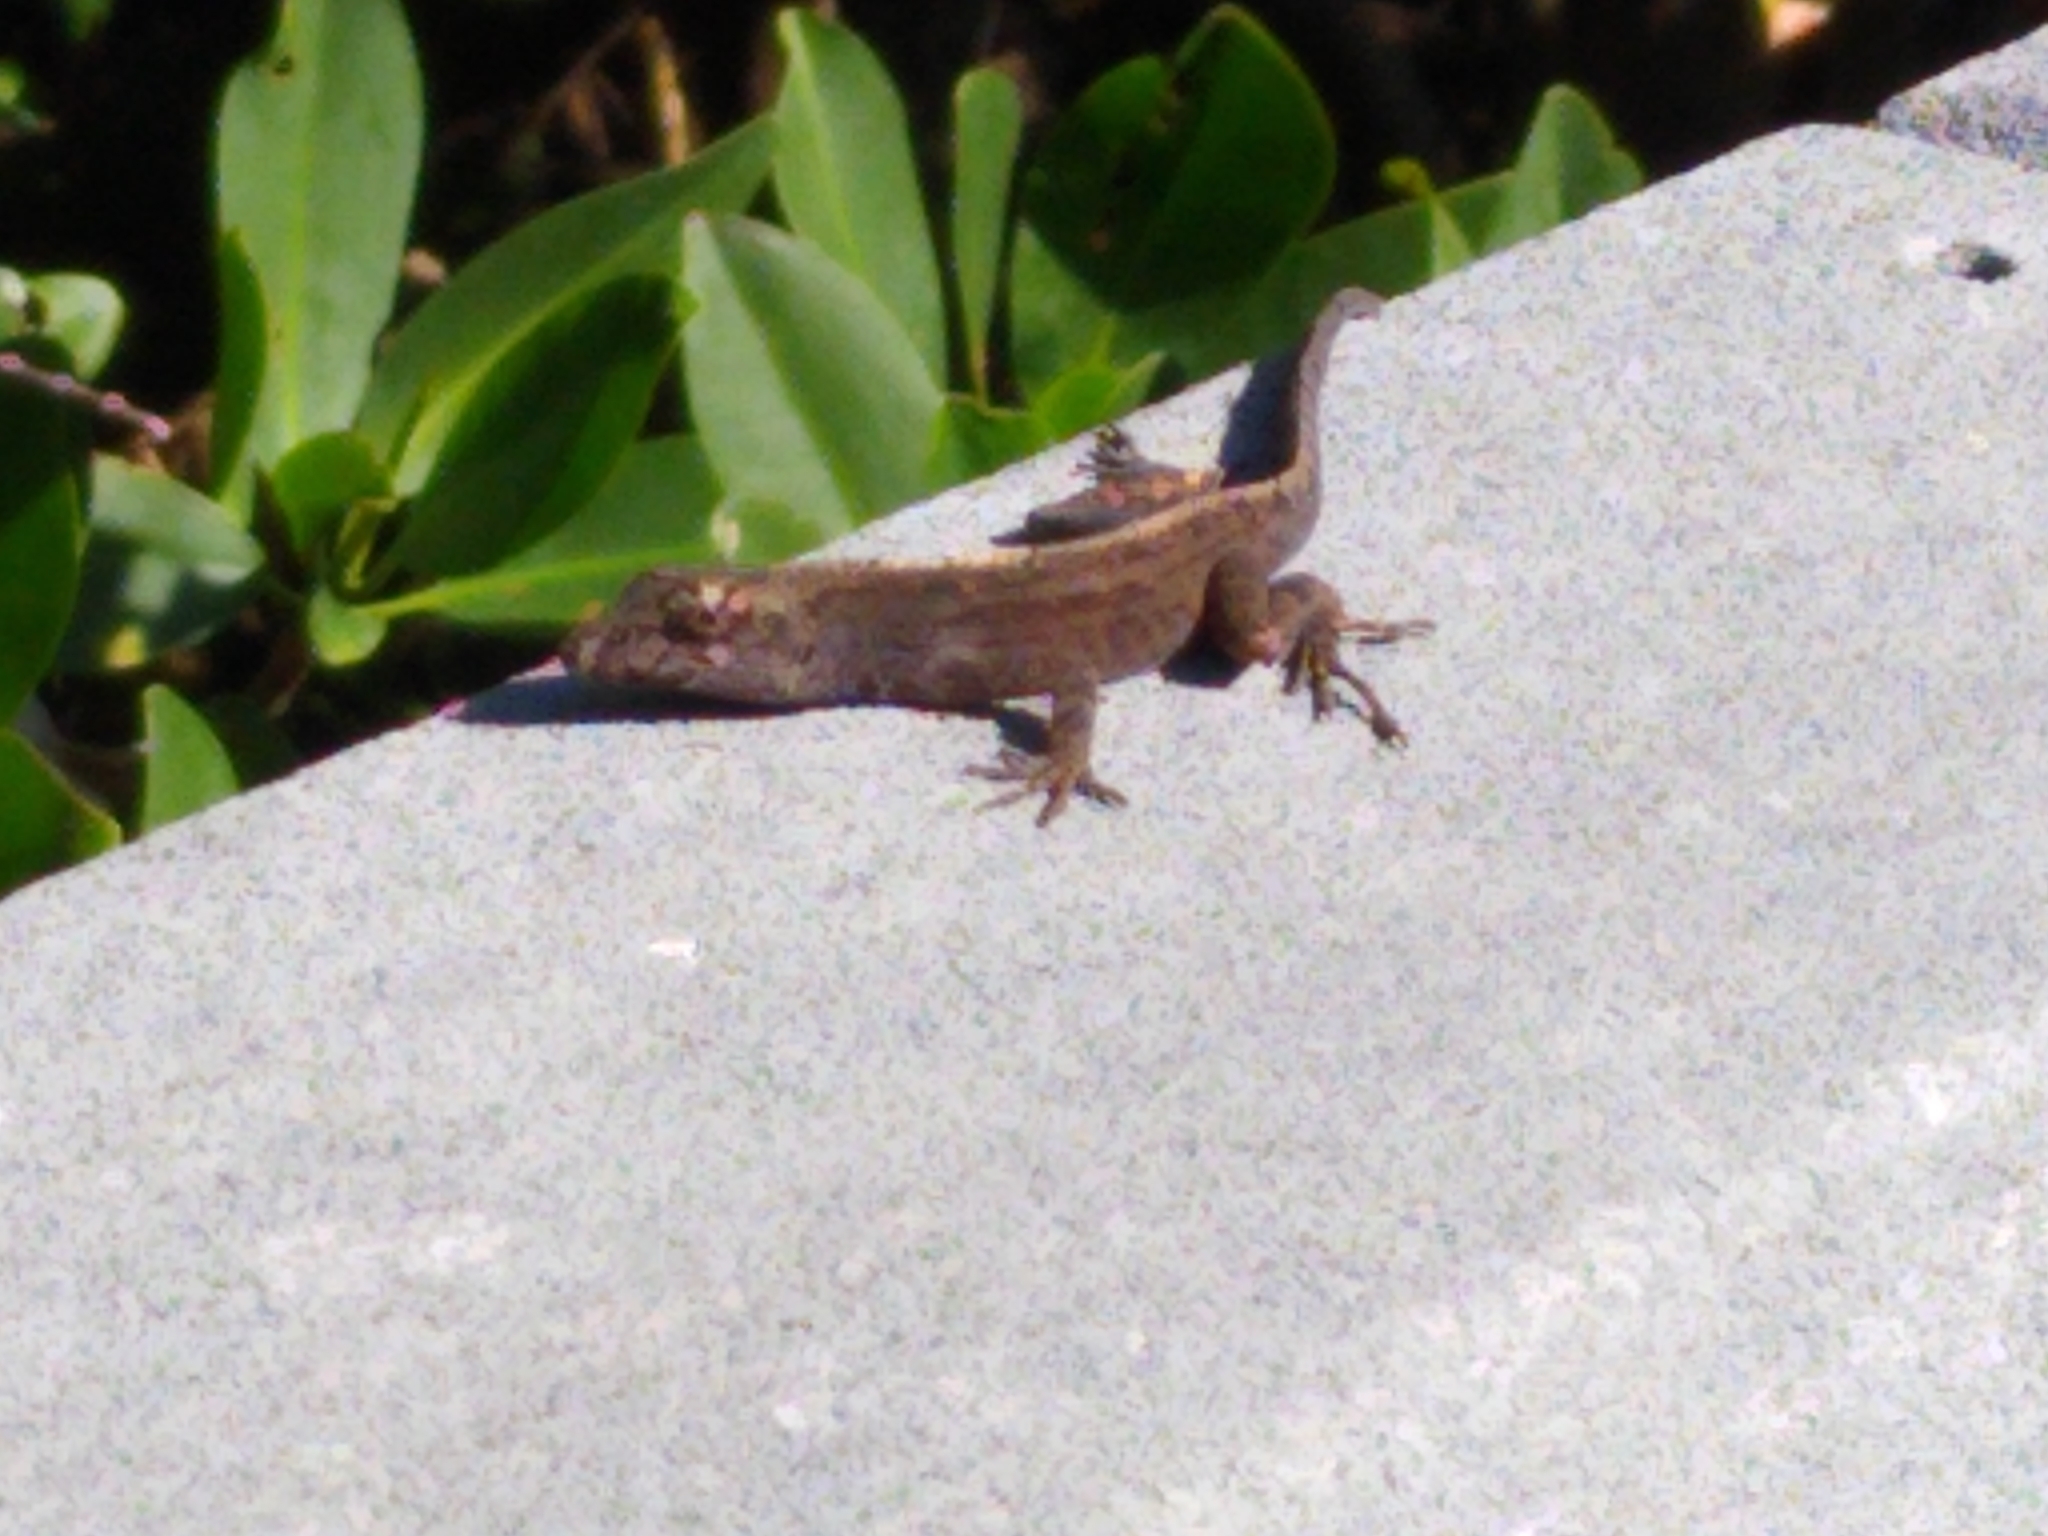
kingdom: Animalia
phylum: Chordata
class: Squamata
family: Dactyloidae
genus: Anolis
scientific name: Anolis sagrei
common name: Brown anole
